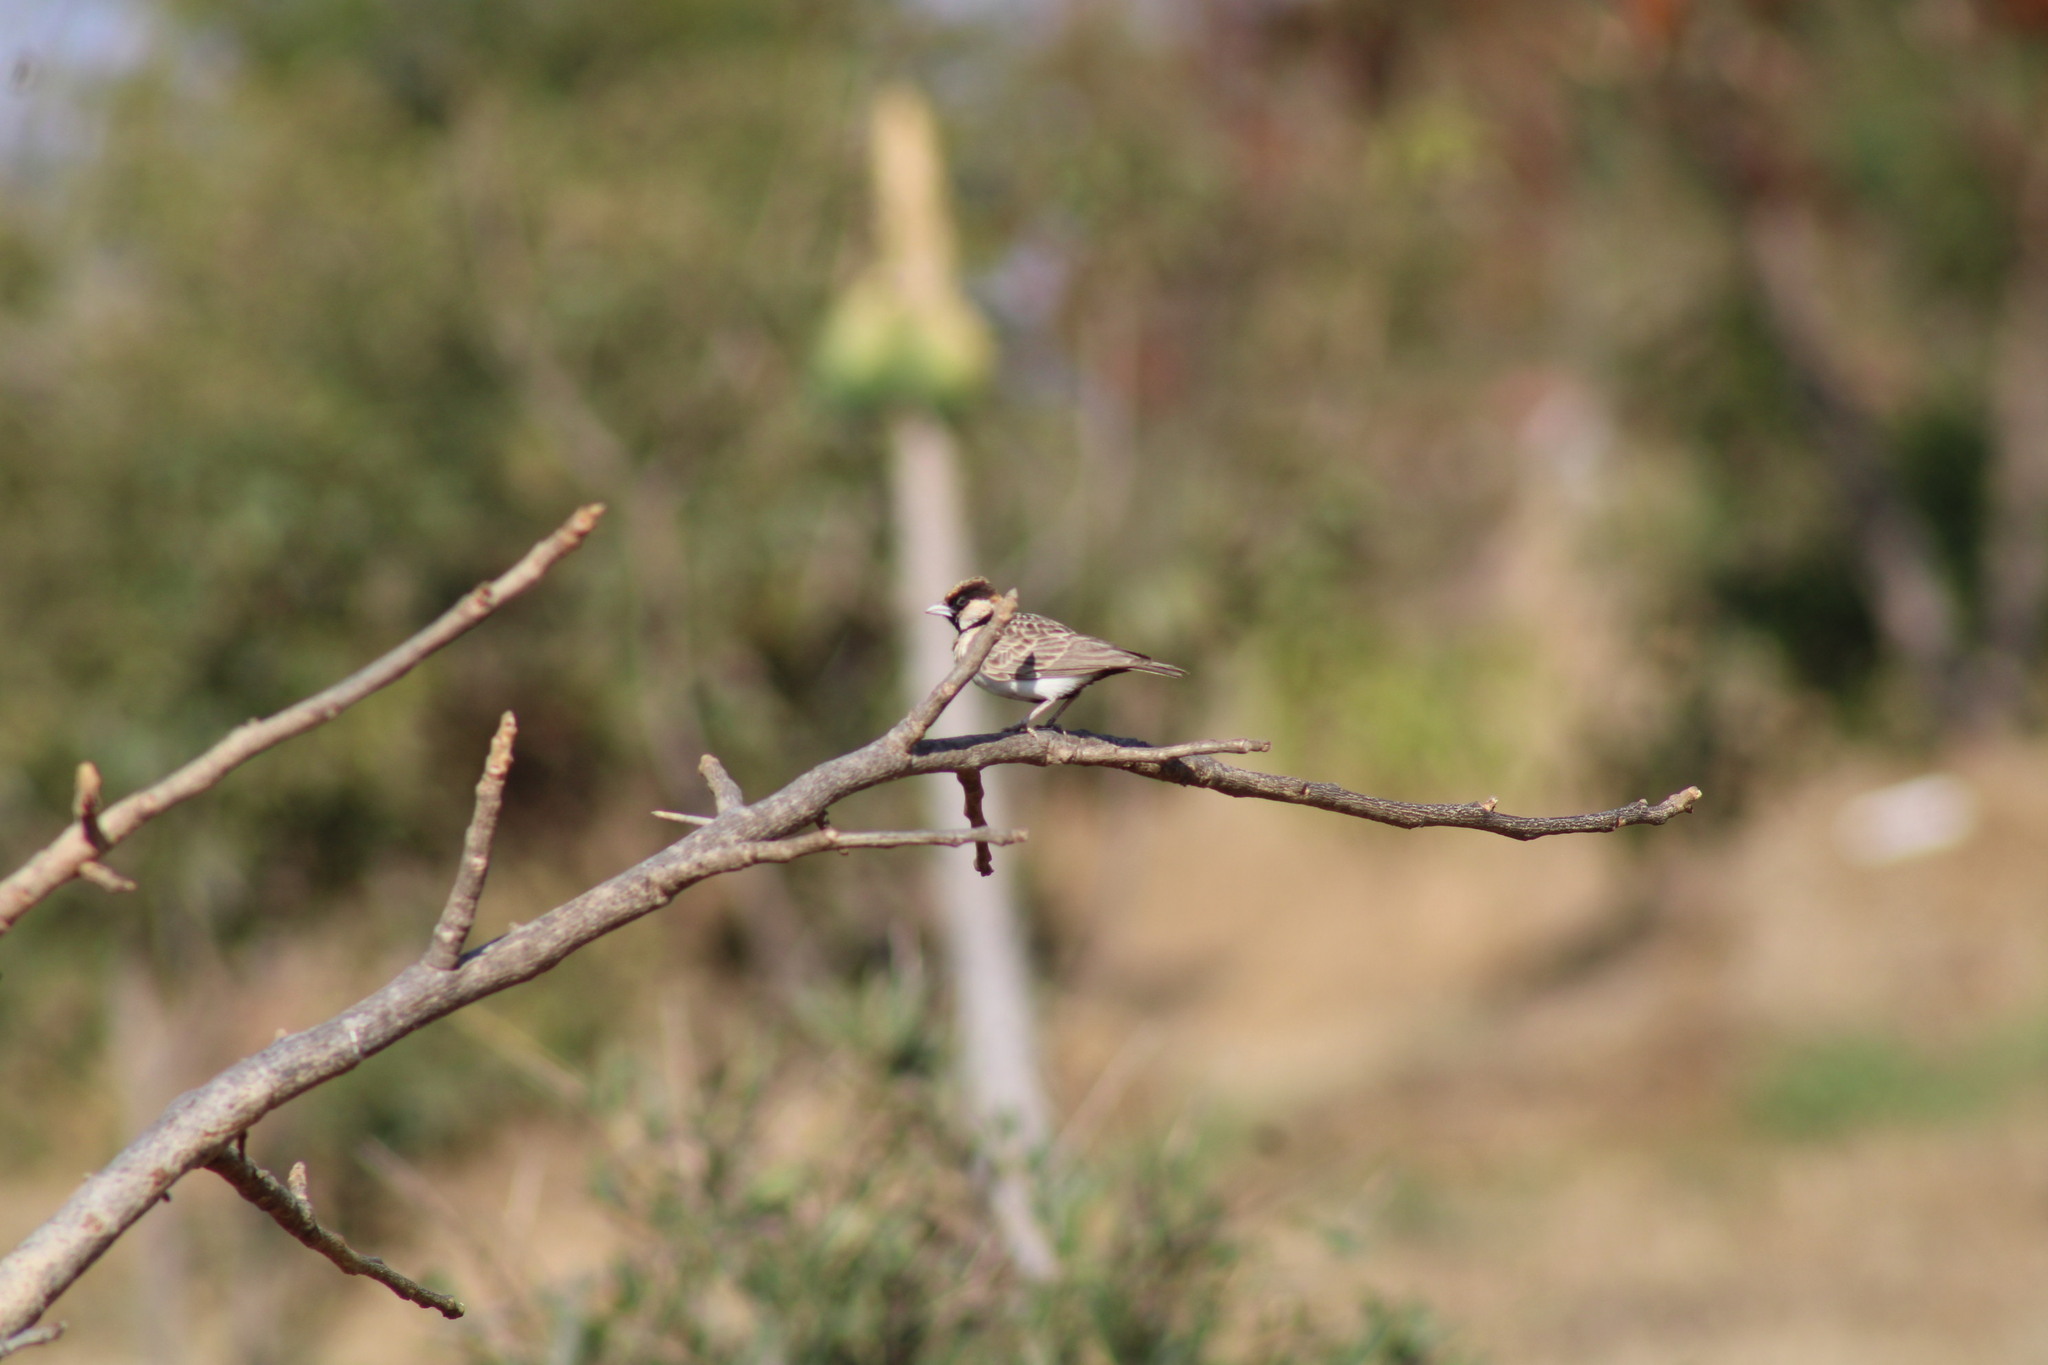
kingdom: Animalia
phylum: Chordata
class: Aves
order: Passeriformes
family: Alaudidae
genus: Eremopterix
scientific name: Eremopterix leucopareia
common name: Fischer's sparrow-lark
